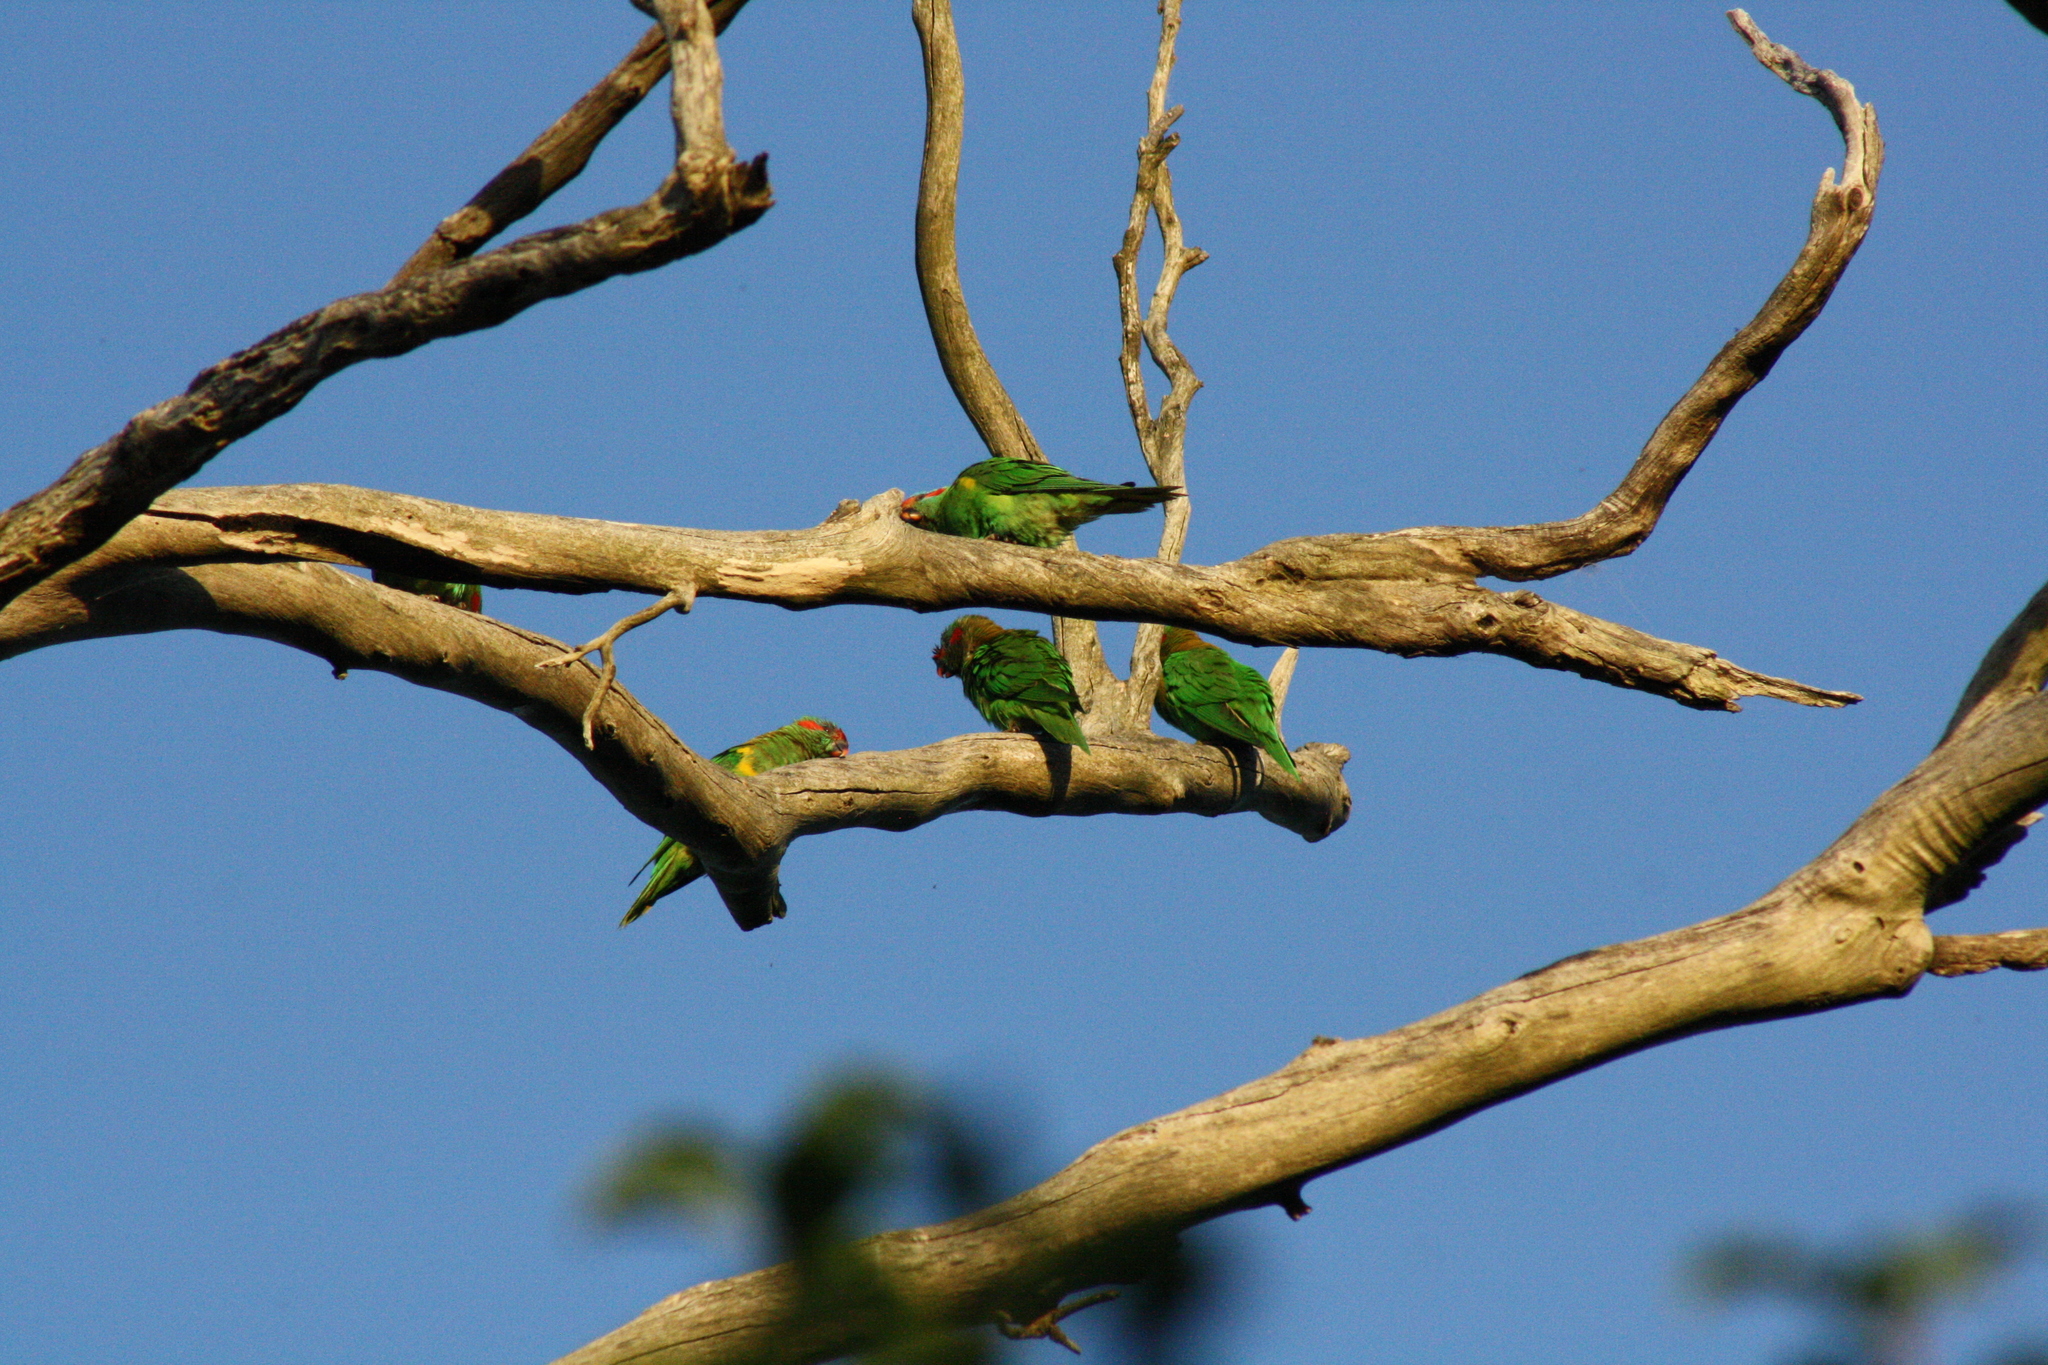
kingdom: Animalia
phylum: Chordata
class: Aves
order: Psittaciformes
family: Psittacidae
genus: Glossopsitta
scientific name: Glossopsitta concinna
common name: Musk lorikeet
